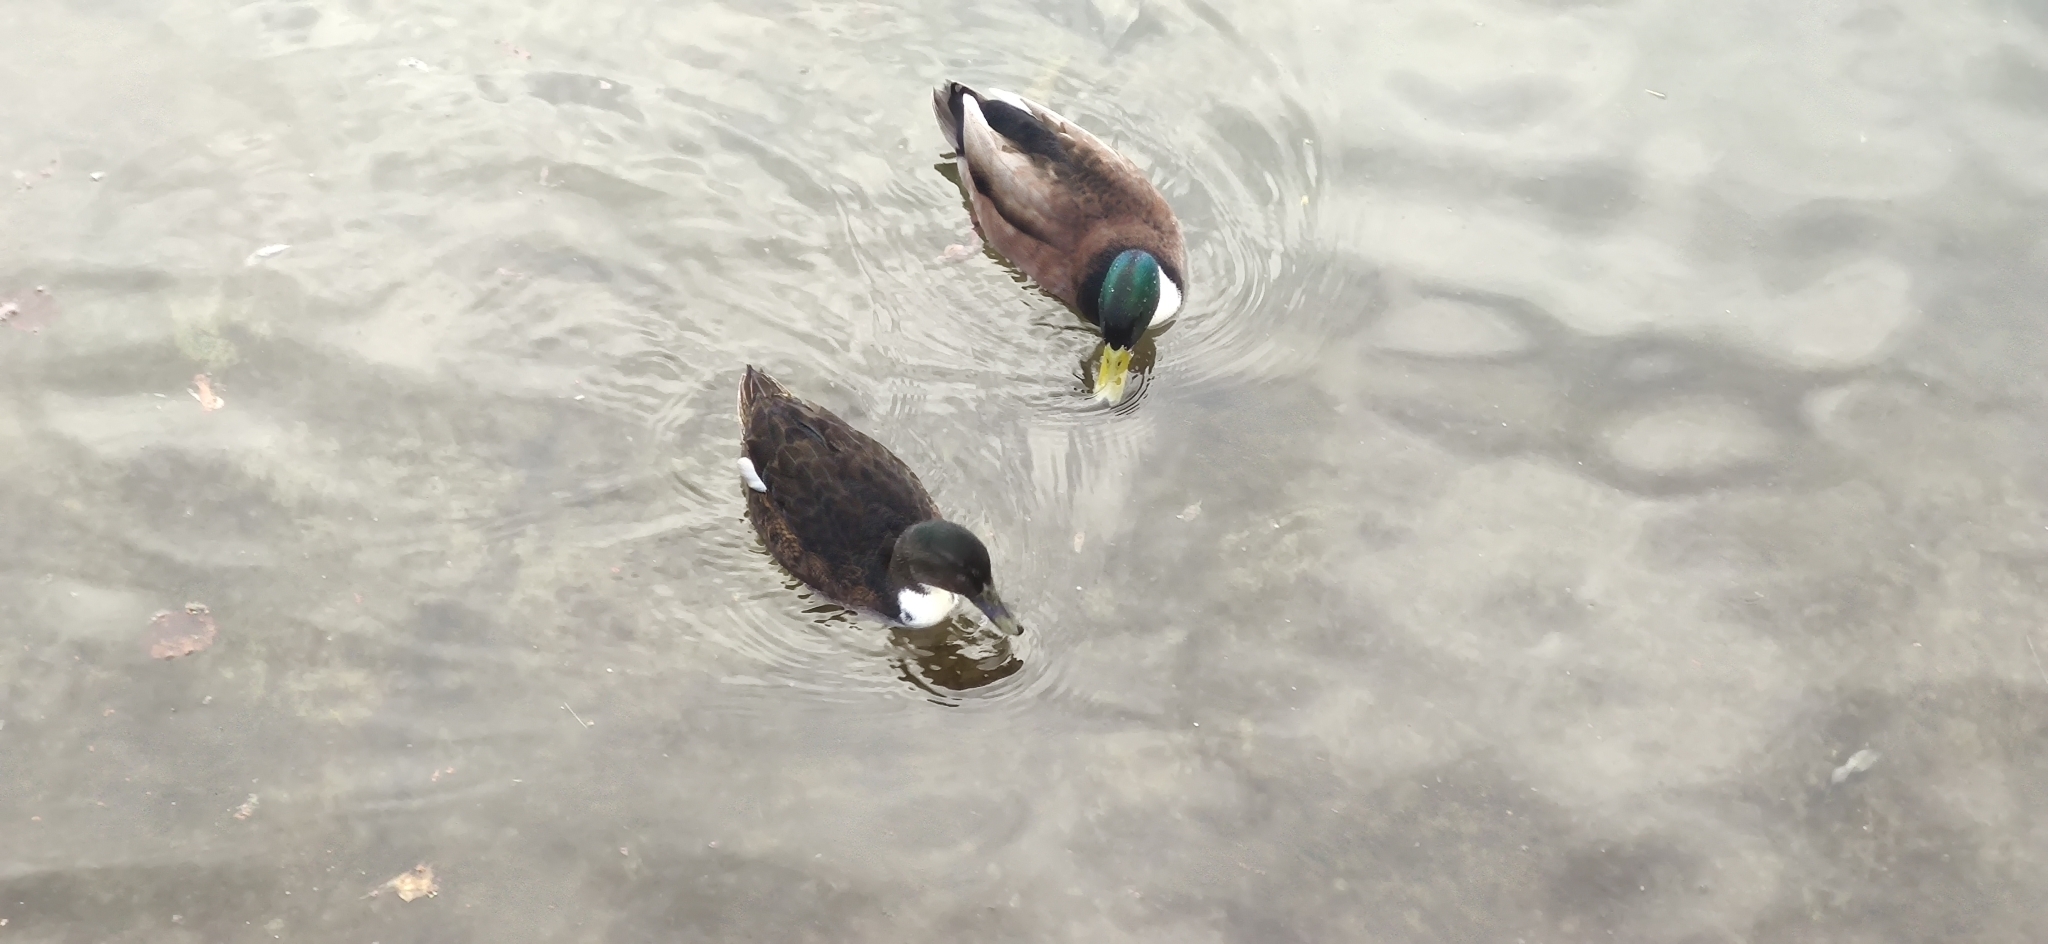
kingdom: Animalia
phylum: Chordata
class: Aves
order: Anseriformes
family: Anatidae
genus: Anas
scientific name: Anas platyrhynchos
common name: Mallard
